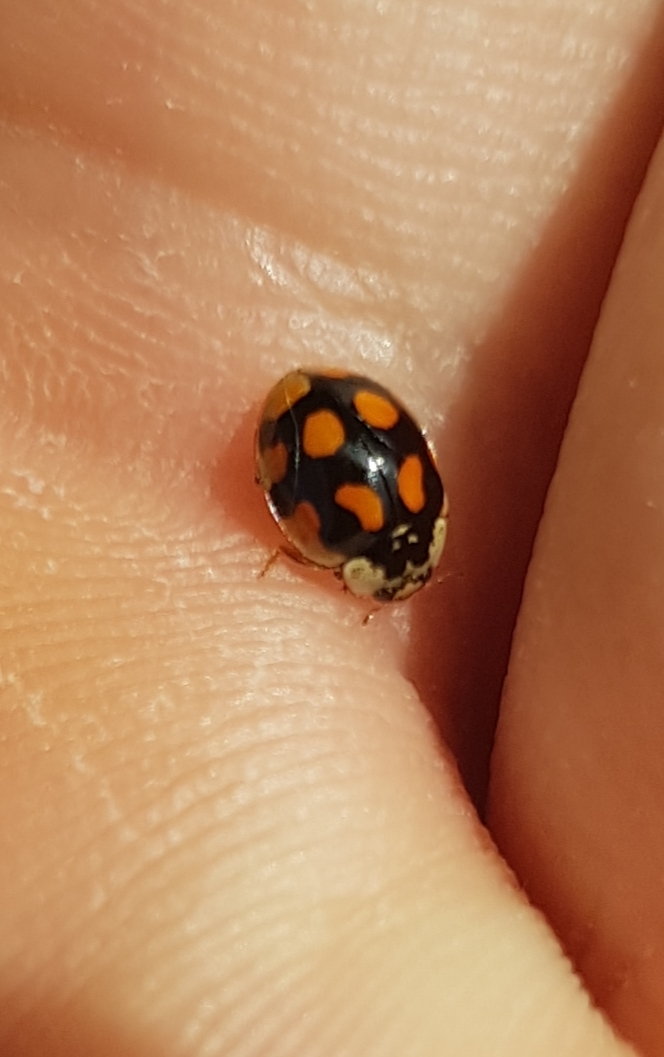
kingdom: Animalia
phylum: Arthropoda
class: Insecta
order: Coleoptera
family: Coccinellidae
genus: Adalia
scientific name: Adalia decempunctata
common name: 10-spot ladybird
